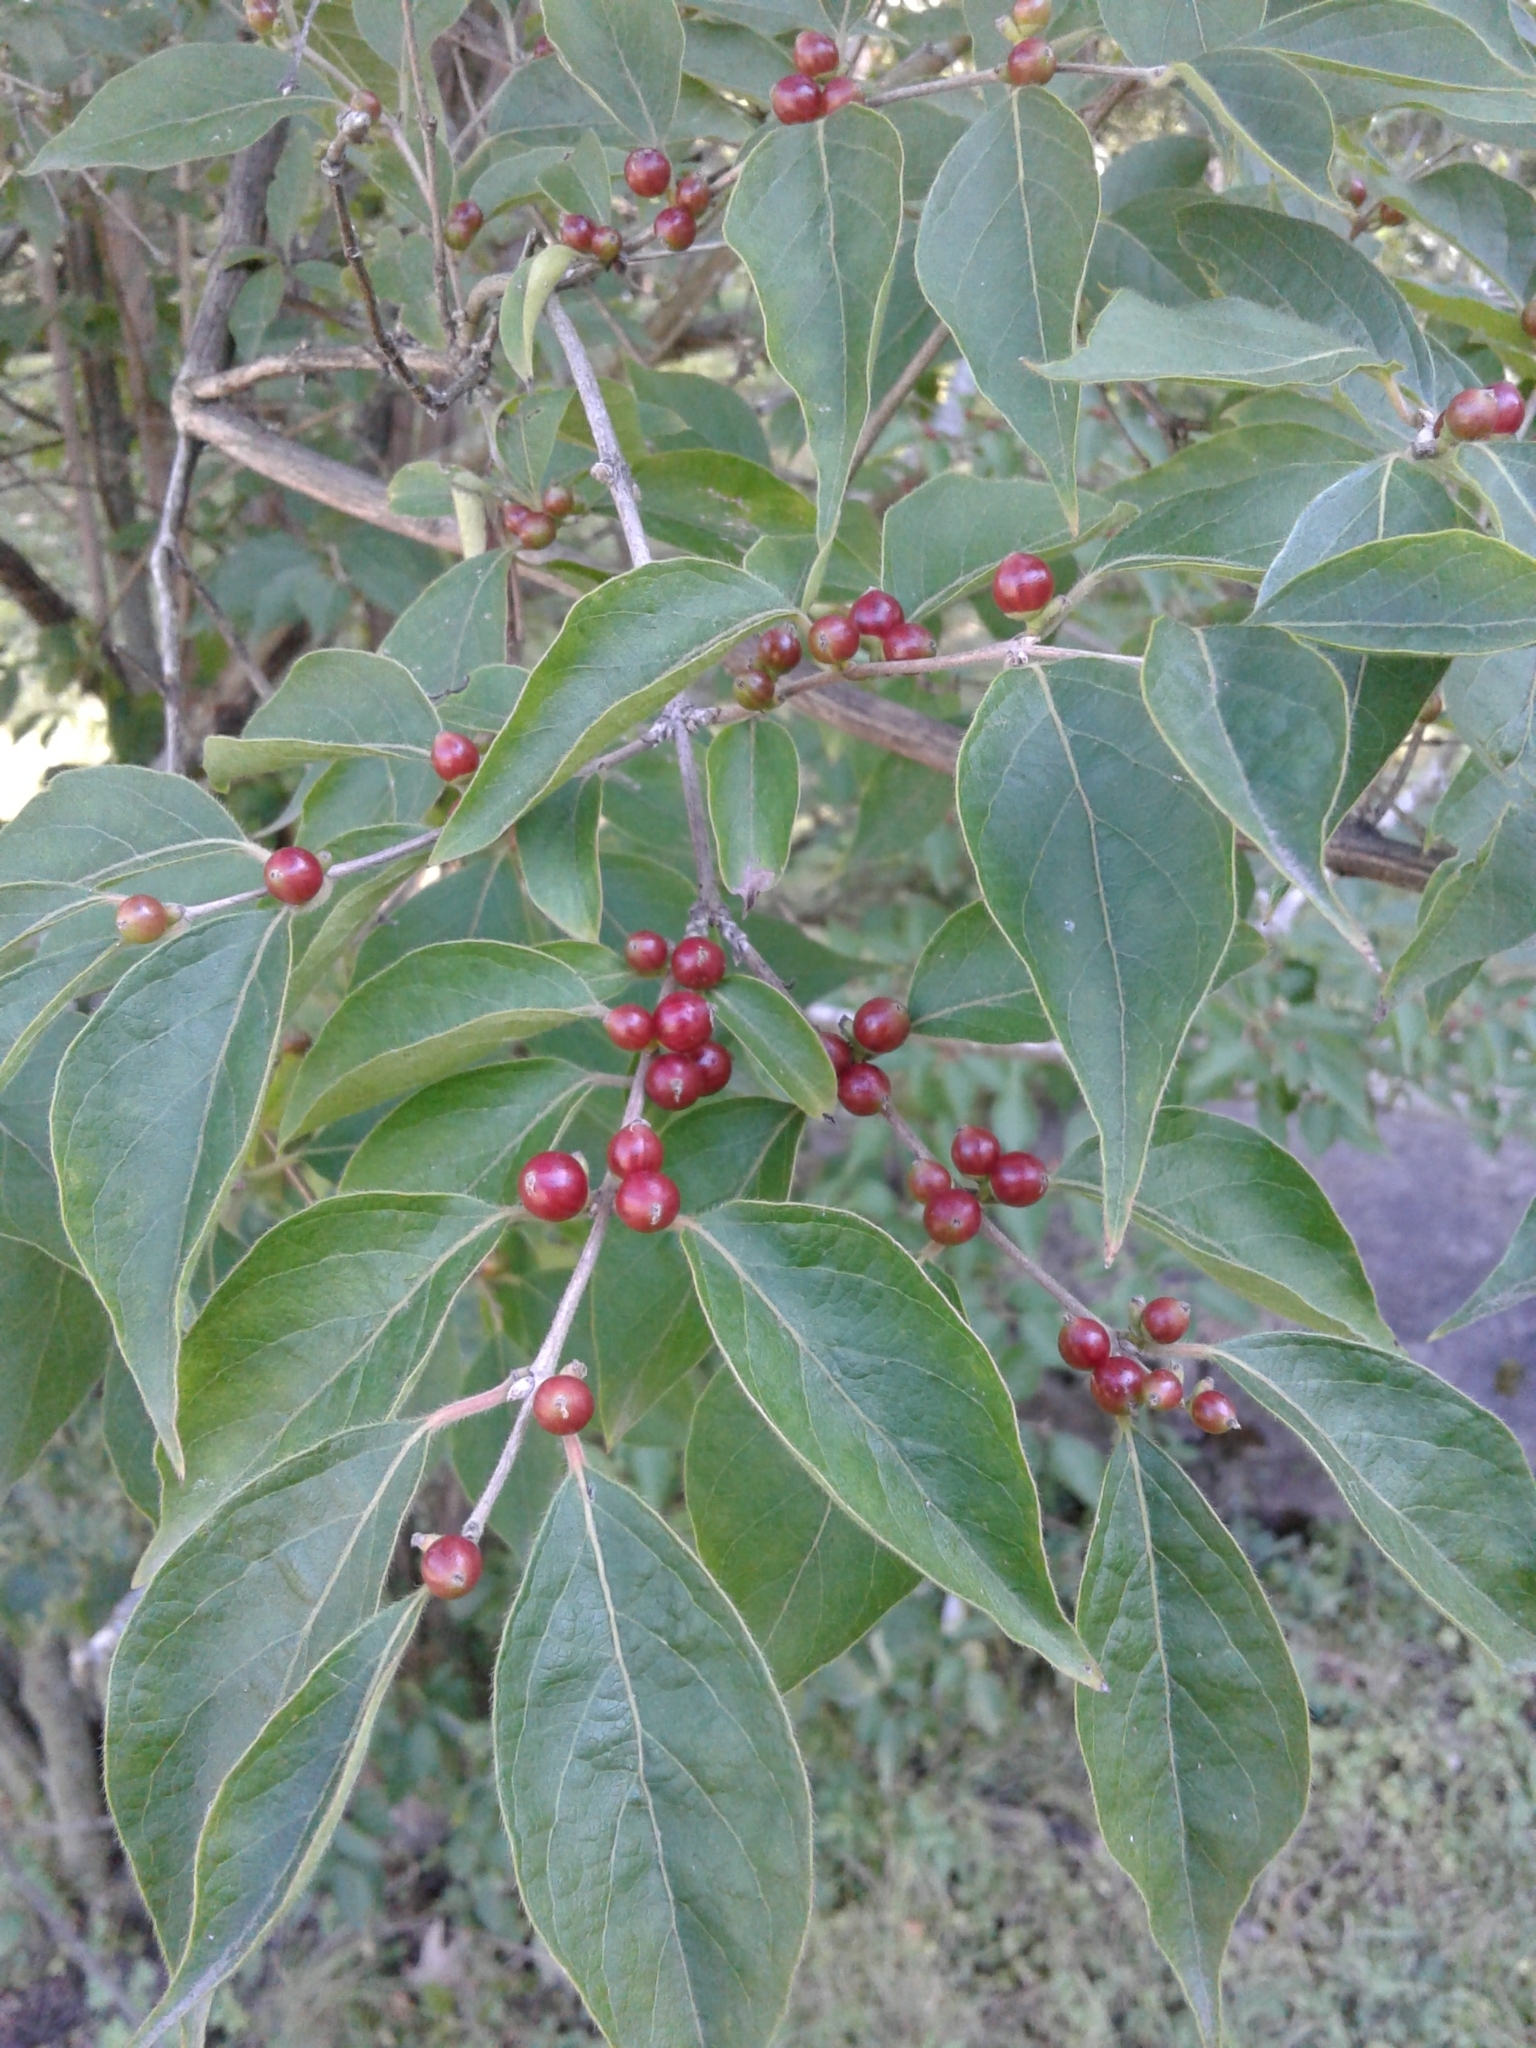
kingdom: Plantae
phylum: Tracheophyta
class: Magnoliopsida
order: Dipsacales
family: Caprifoliaceae
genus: Lonicera
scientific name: Lonicera maackii
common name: Amur honeysuckle
